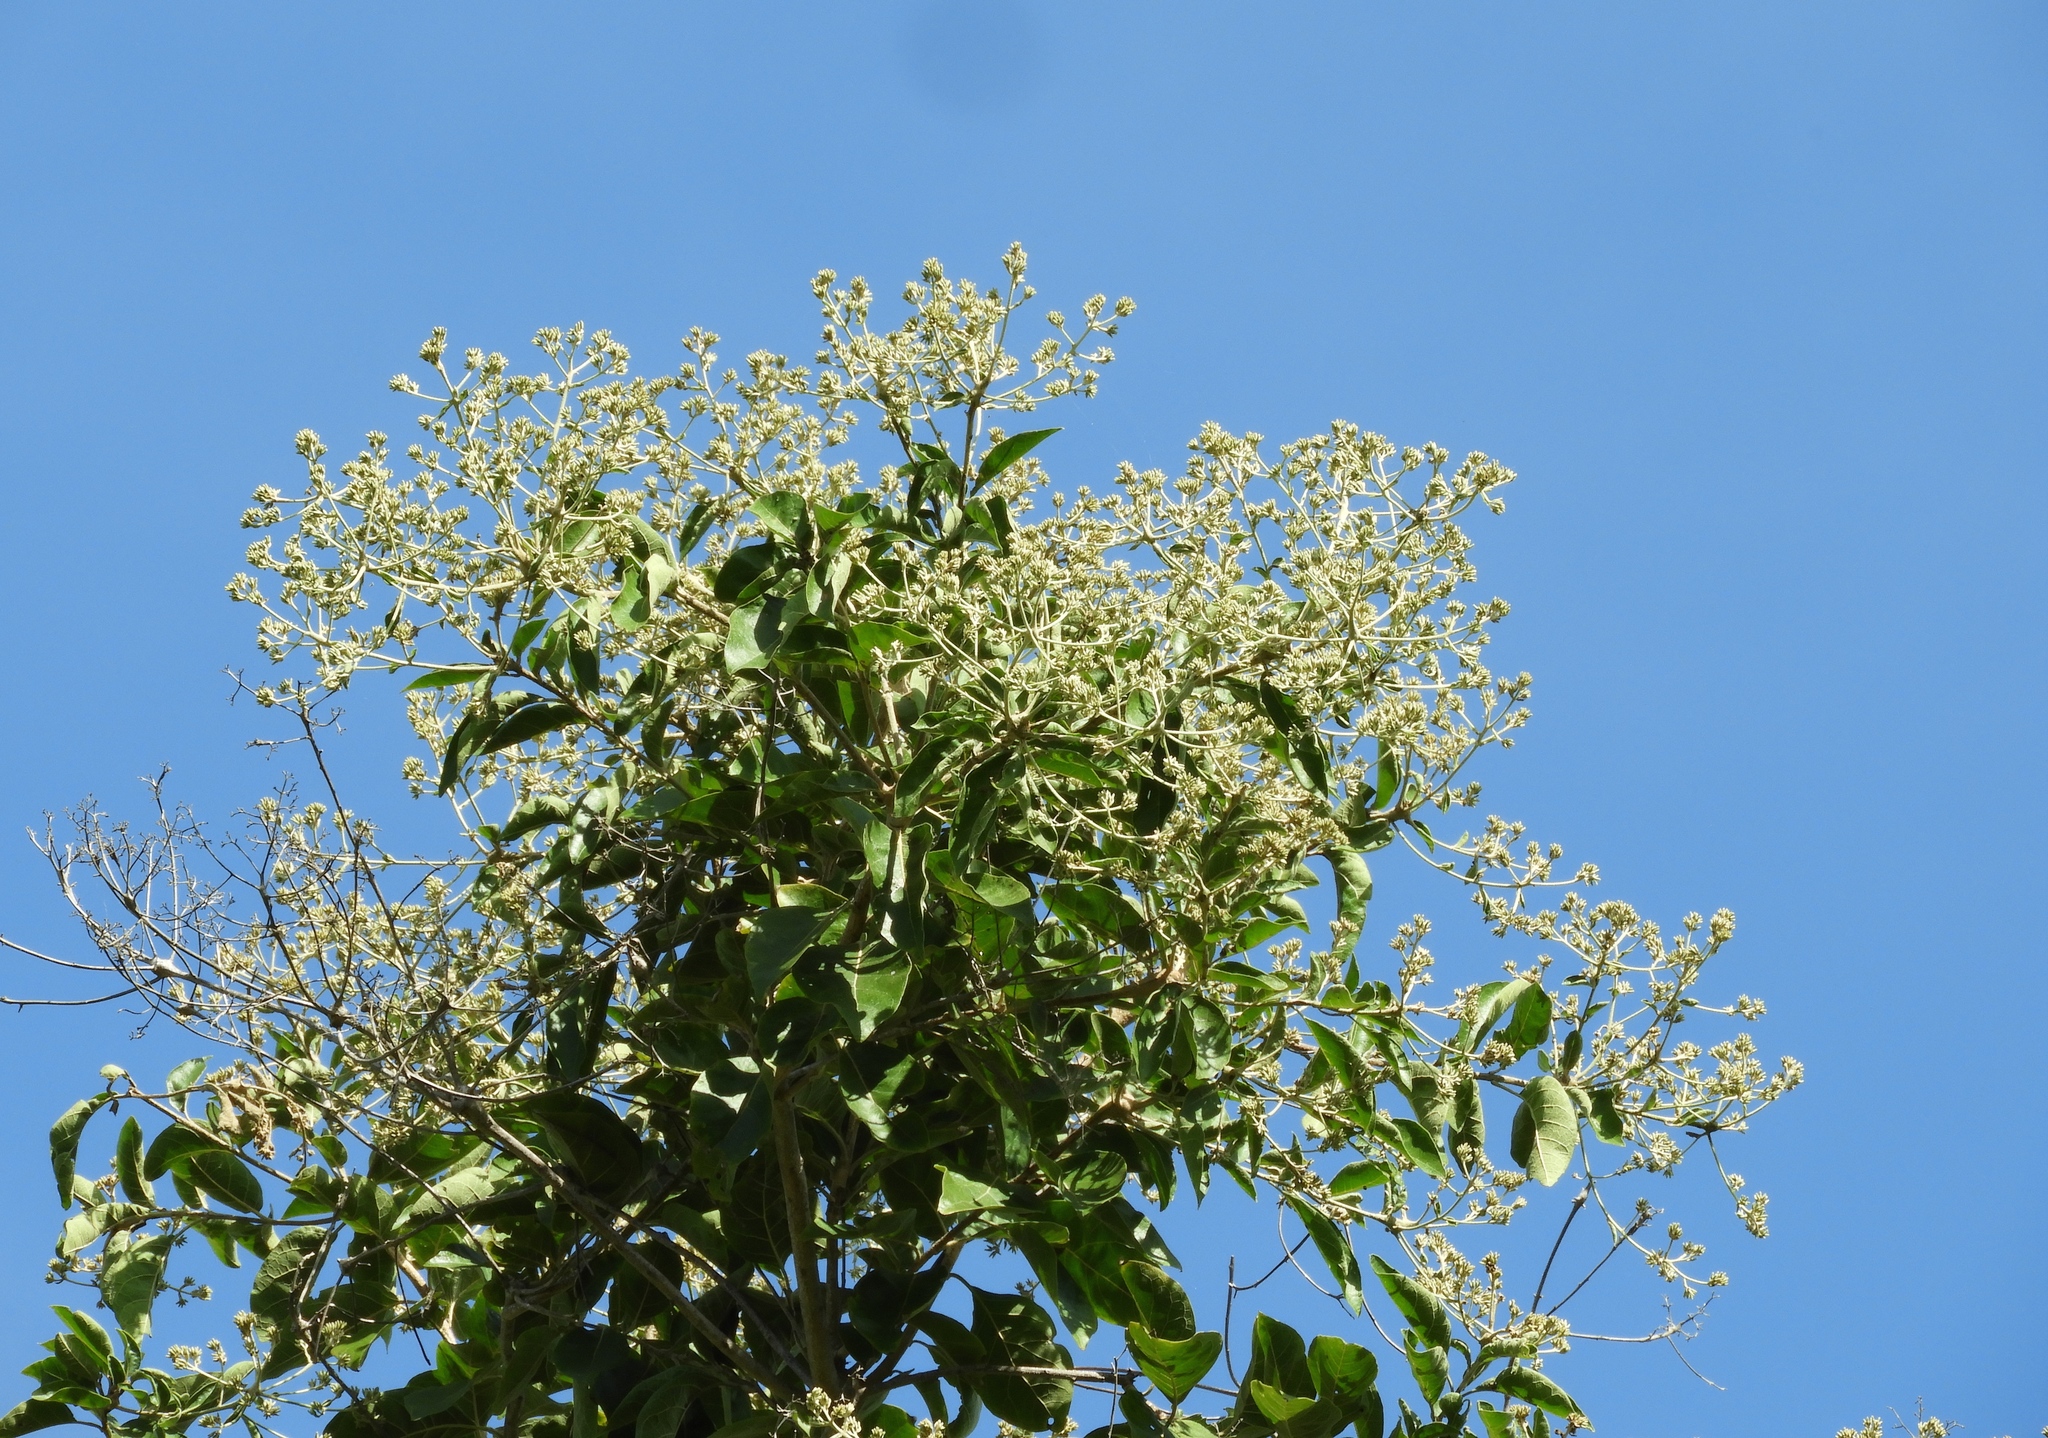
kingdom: Plantae
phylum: Tracheophyta
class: Magnoliopsida
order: Boraginales
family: Cordiaceae
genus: Cordia
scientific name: Cordia alliodora
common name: Spanish elm
